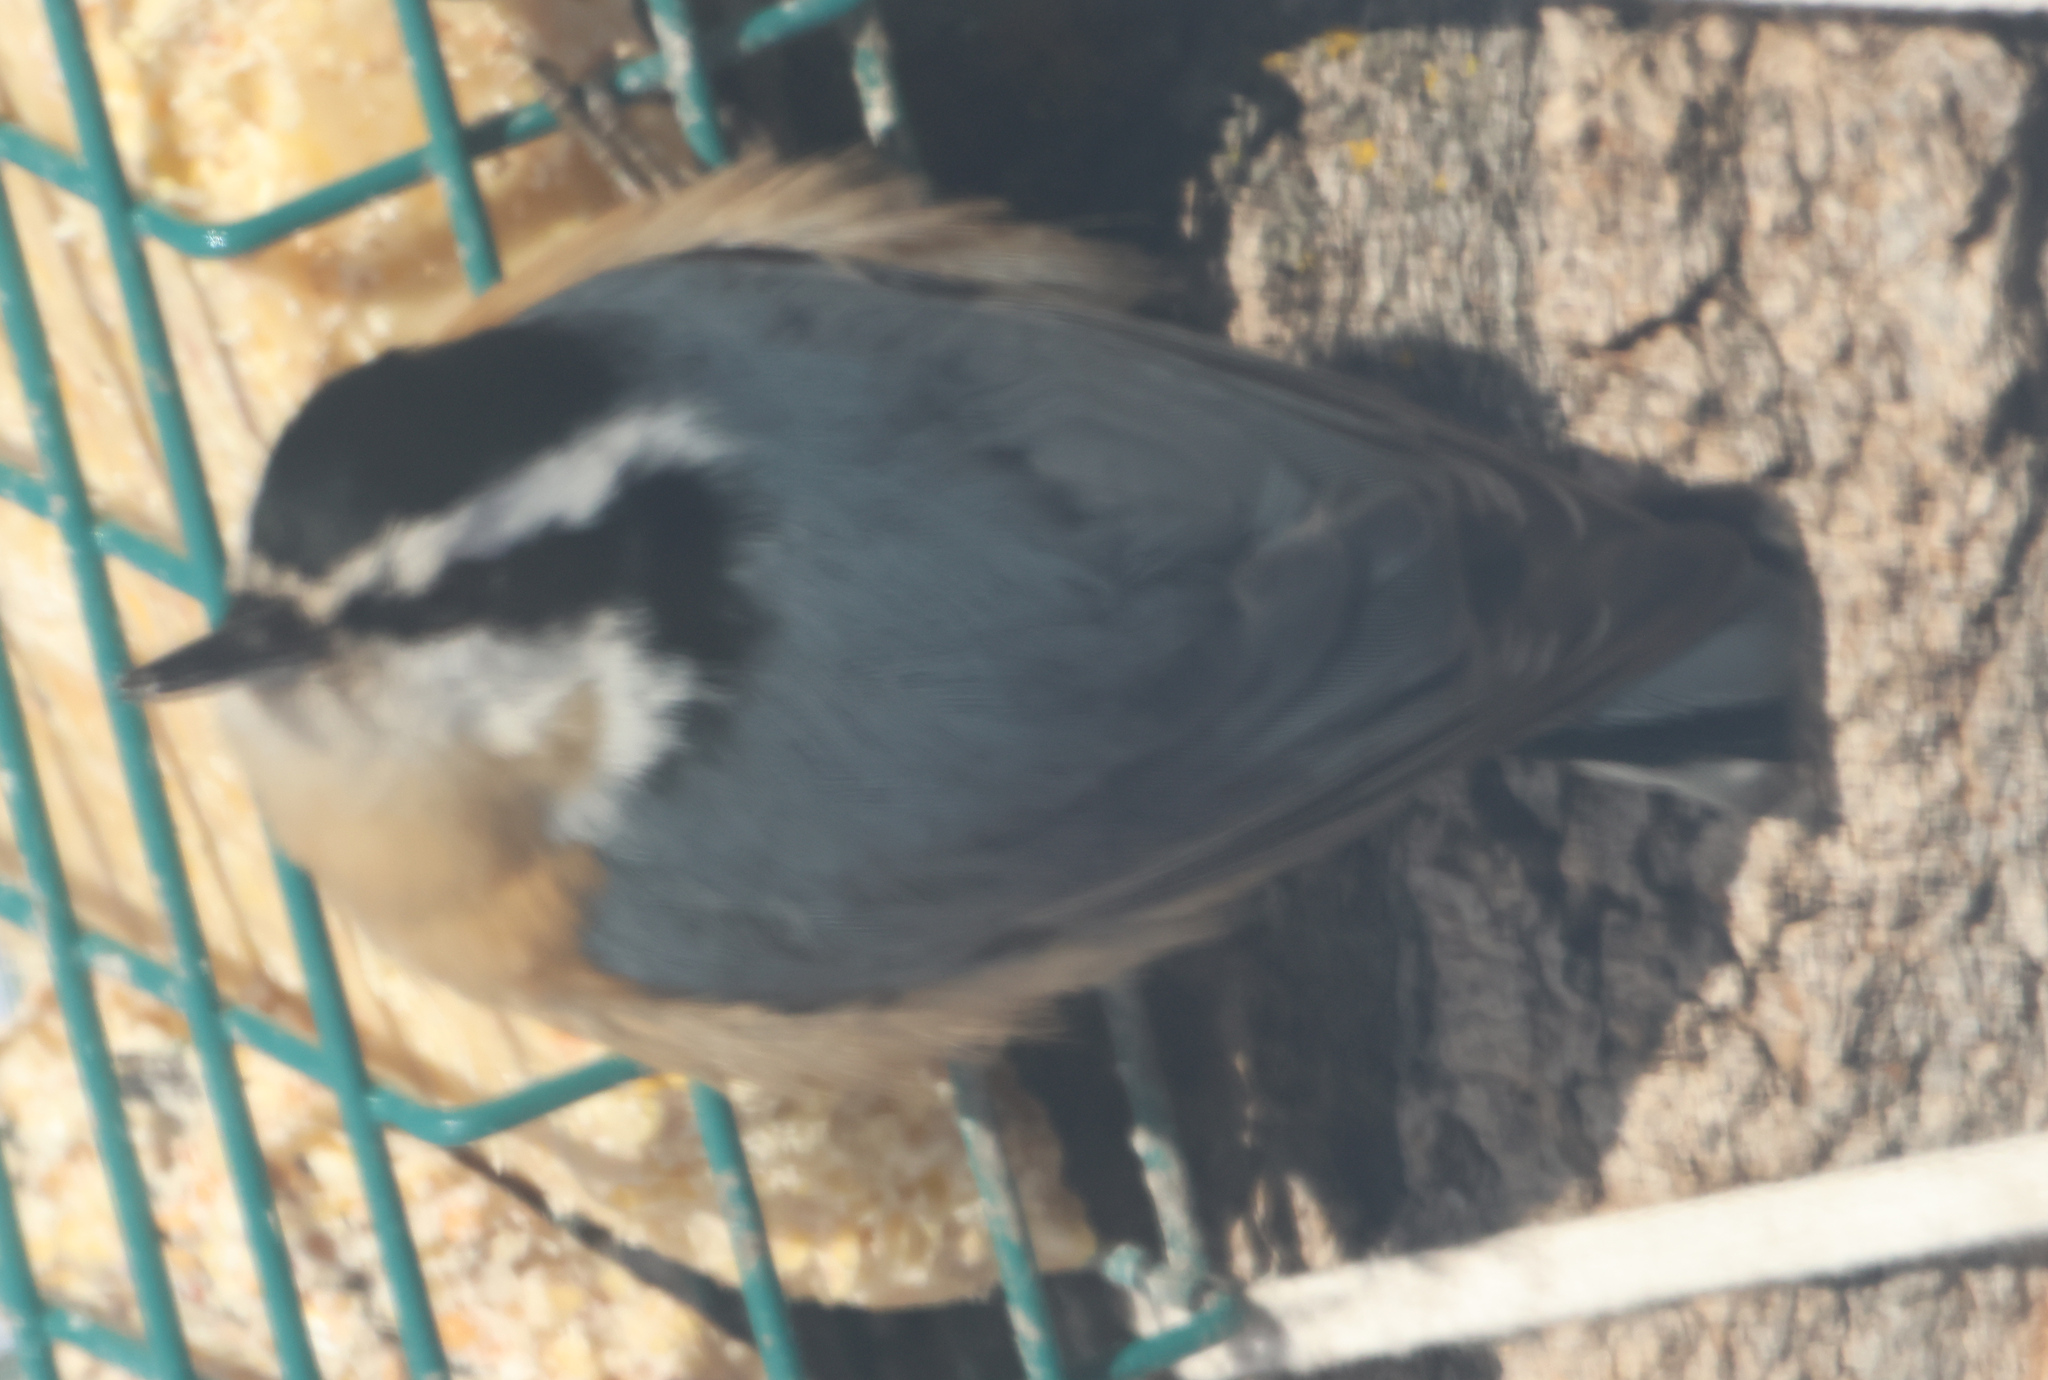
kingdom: Animalia
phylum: Chordata
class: Aves
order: Passeriformes
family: Sittidae
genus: Sitta
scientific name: Sitta canadensis
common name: Red-breasted nuthatch
